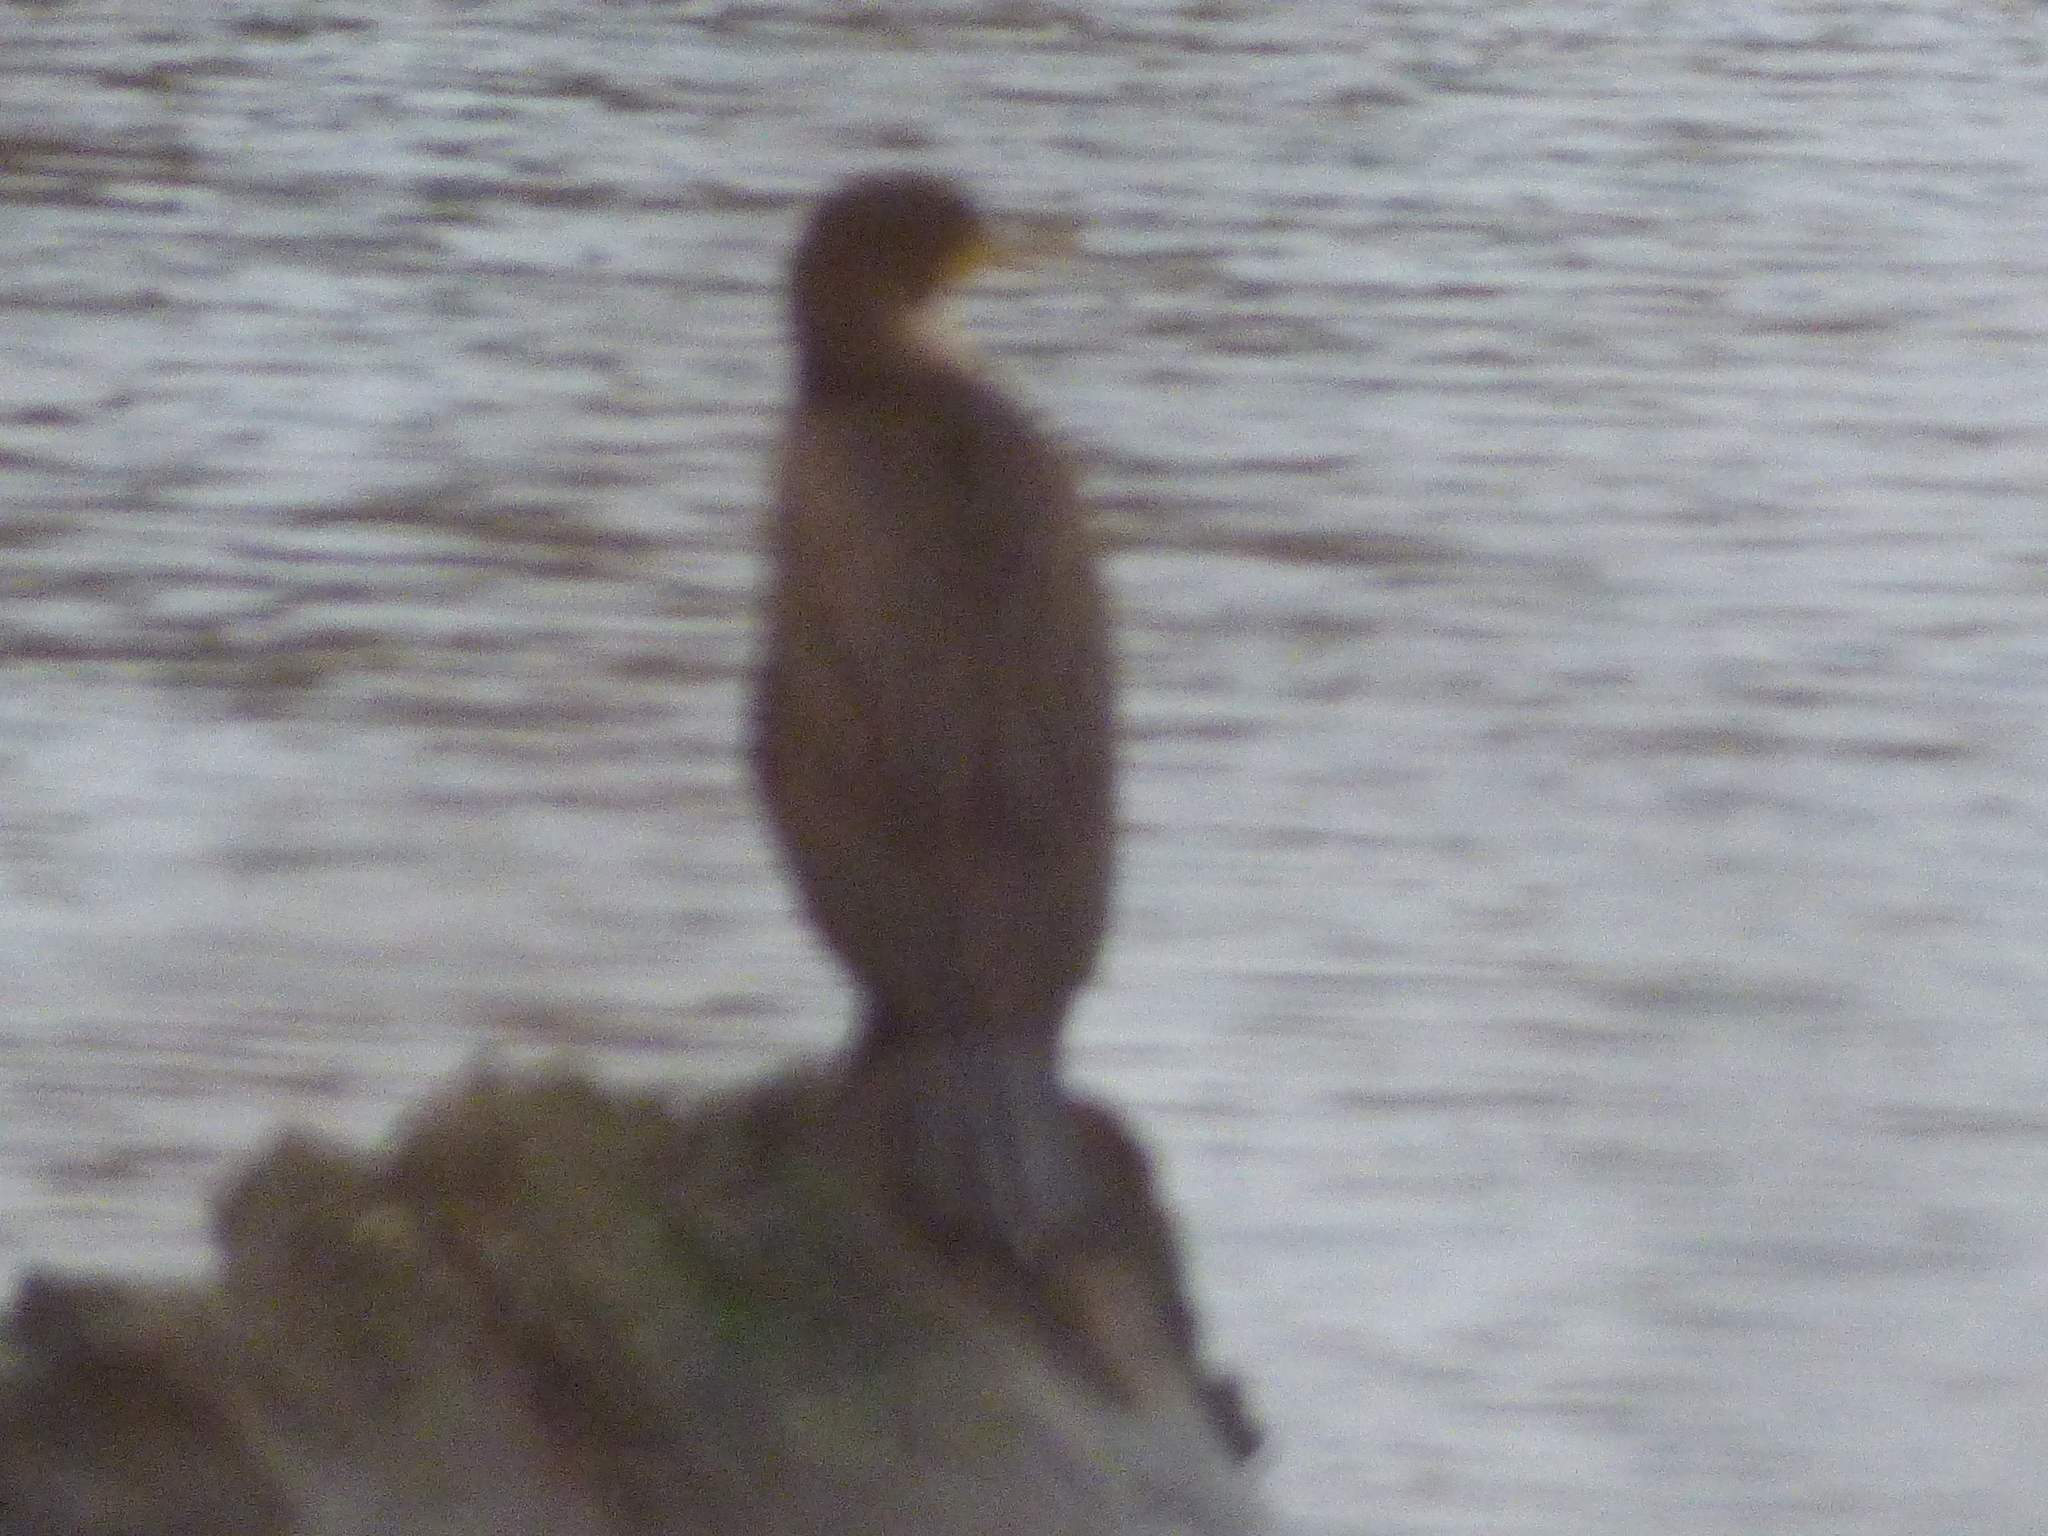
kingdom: Animalia
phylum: Chordata
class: Aves
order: Suliformes
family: Phalacrocoracidae
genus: Phalacrocorax
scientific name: Phalacrocorax auritus
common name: Double-crested cormorant
